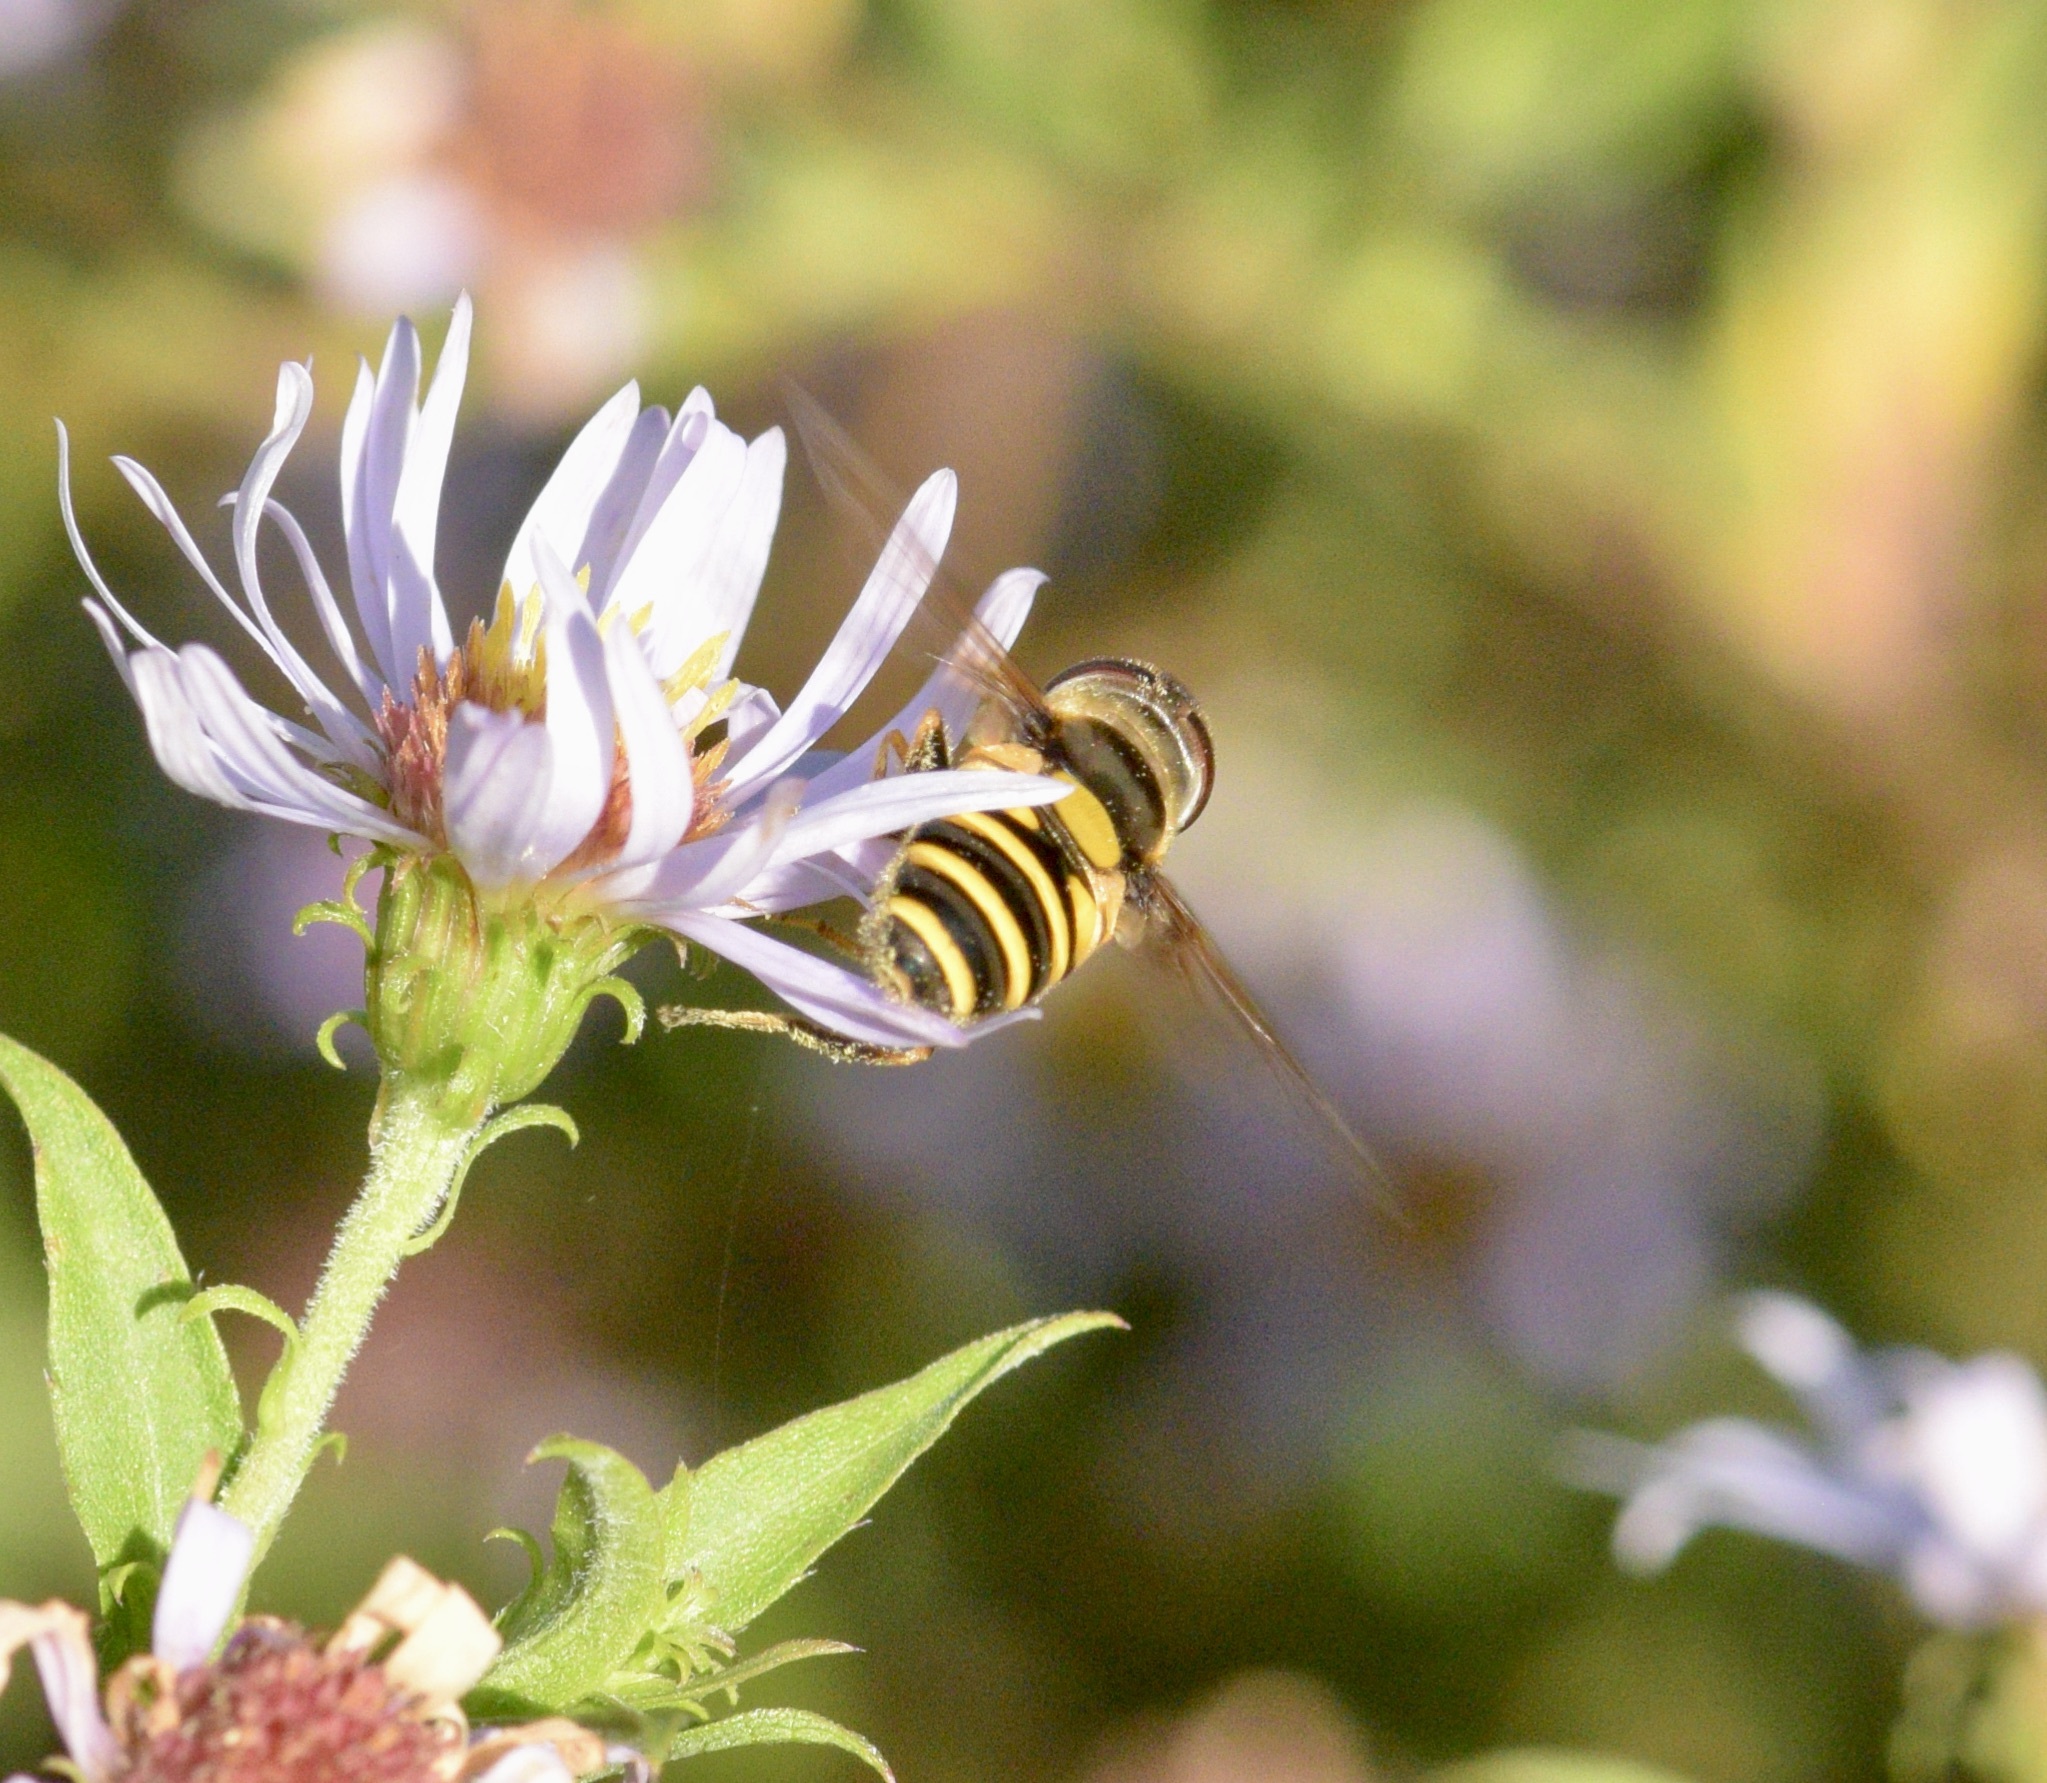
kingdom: Animalia
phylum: Arthropoda
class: Insecta
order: Diptera
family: Syrphidae
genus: Eristalis
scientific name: Eristalis transversa
